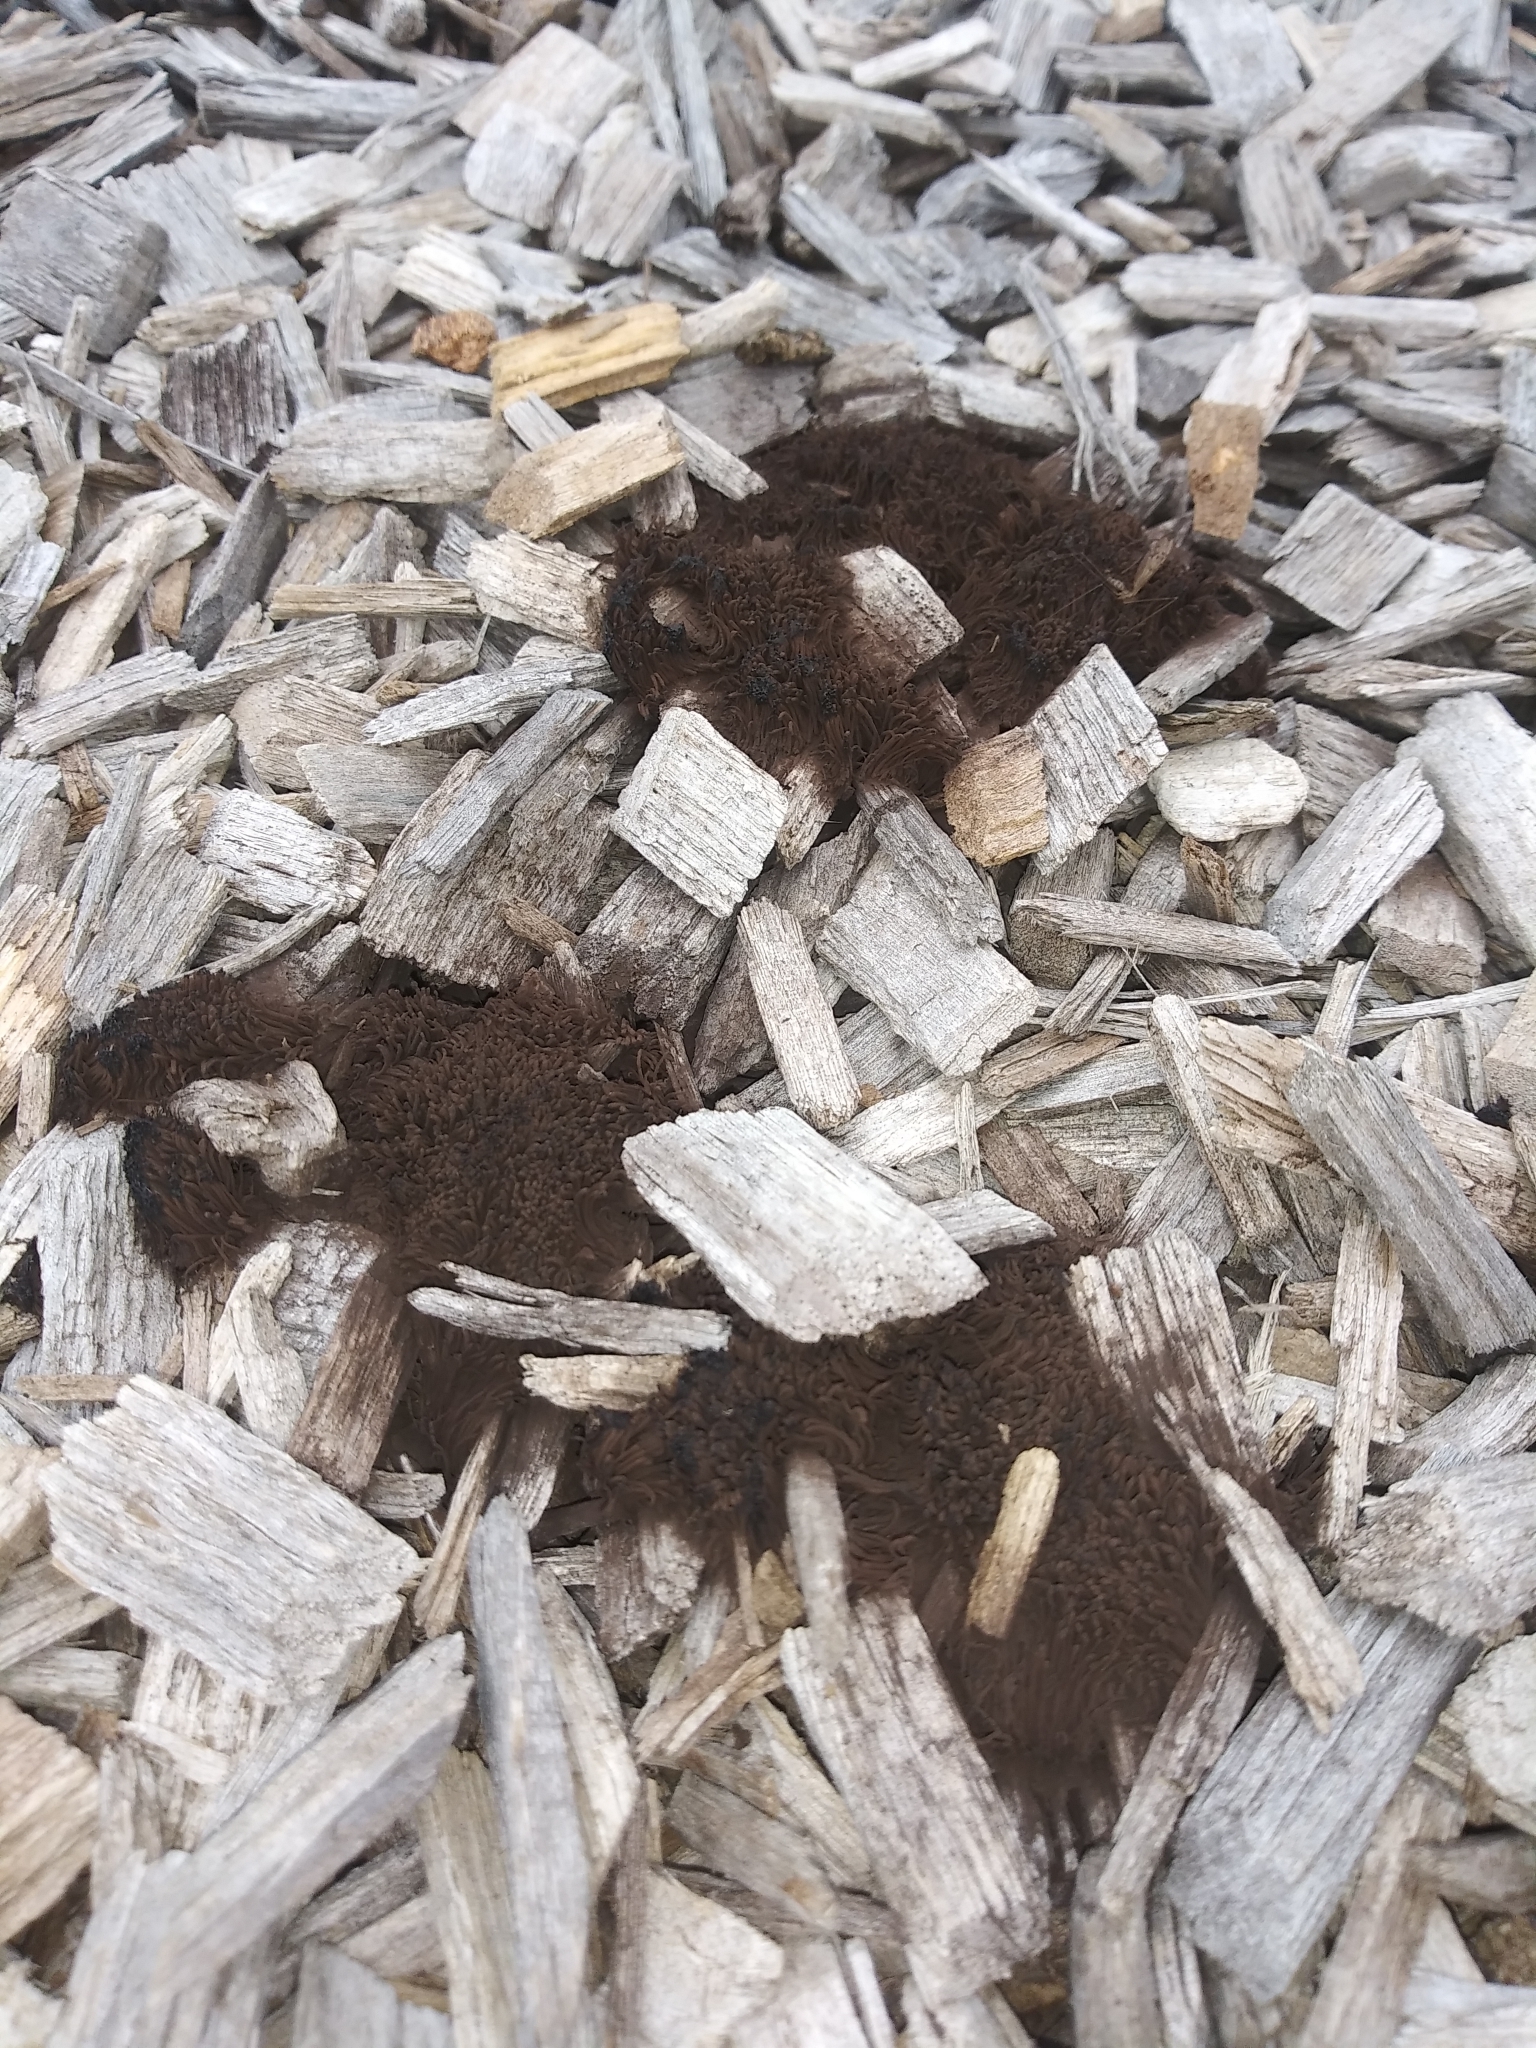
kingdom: Protozoa
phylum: Mycetozoa
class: Myxomycetes
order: Stemonitidales
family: Stemonitidaceae
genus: Stemonitis
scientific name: Stemonitis splendens
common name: Chocolate tube slime
